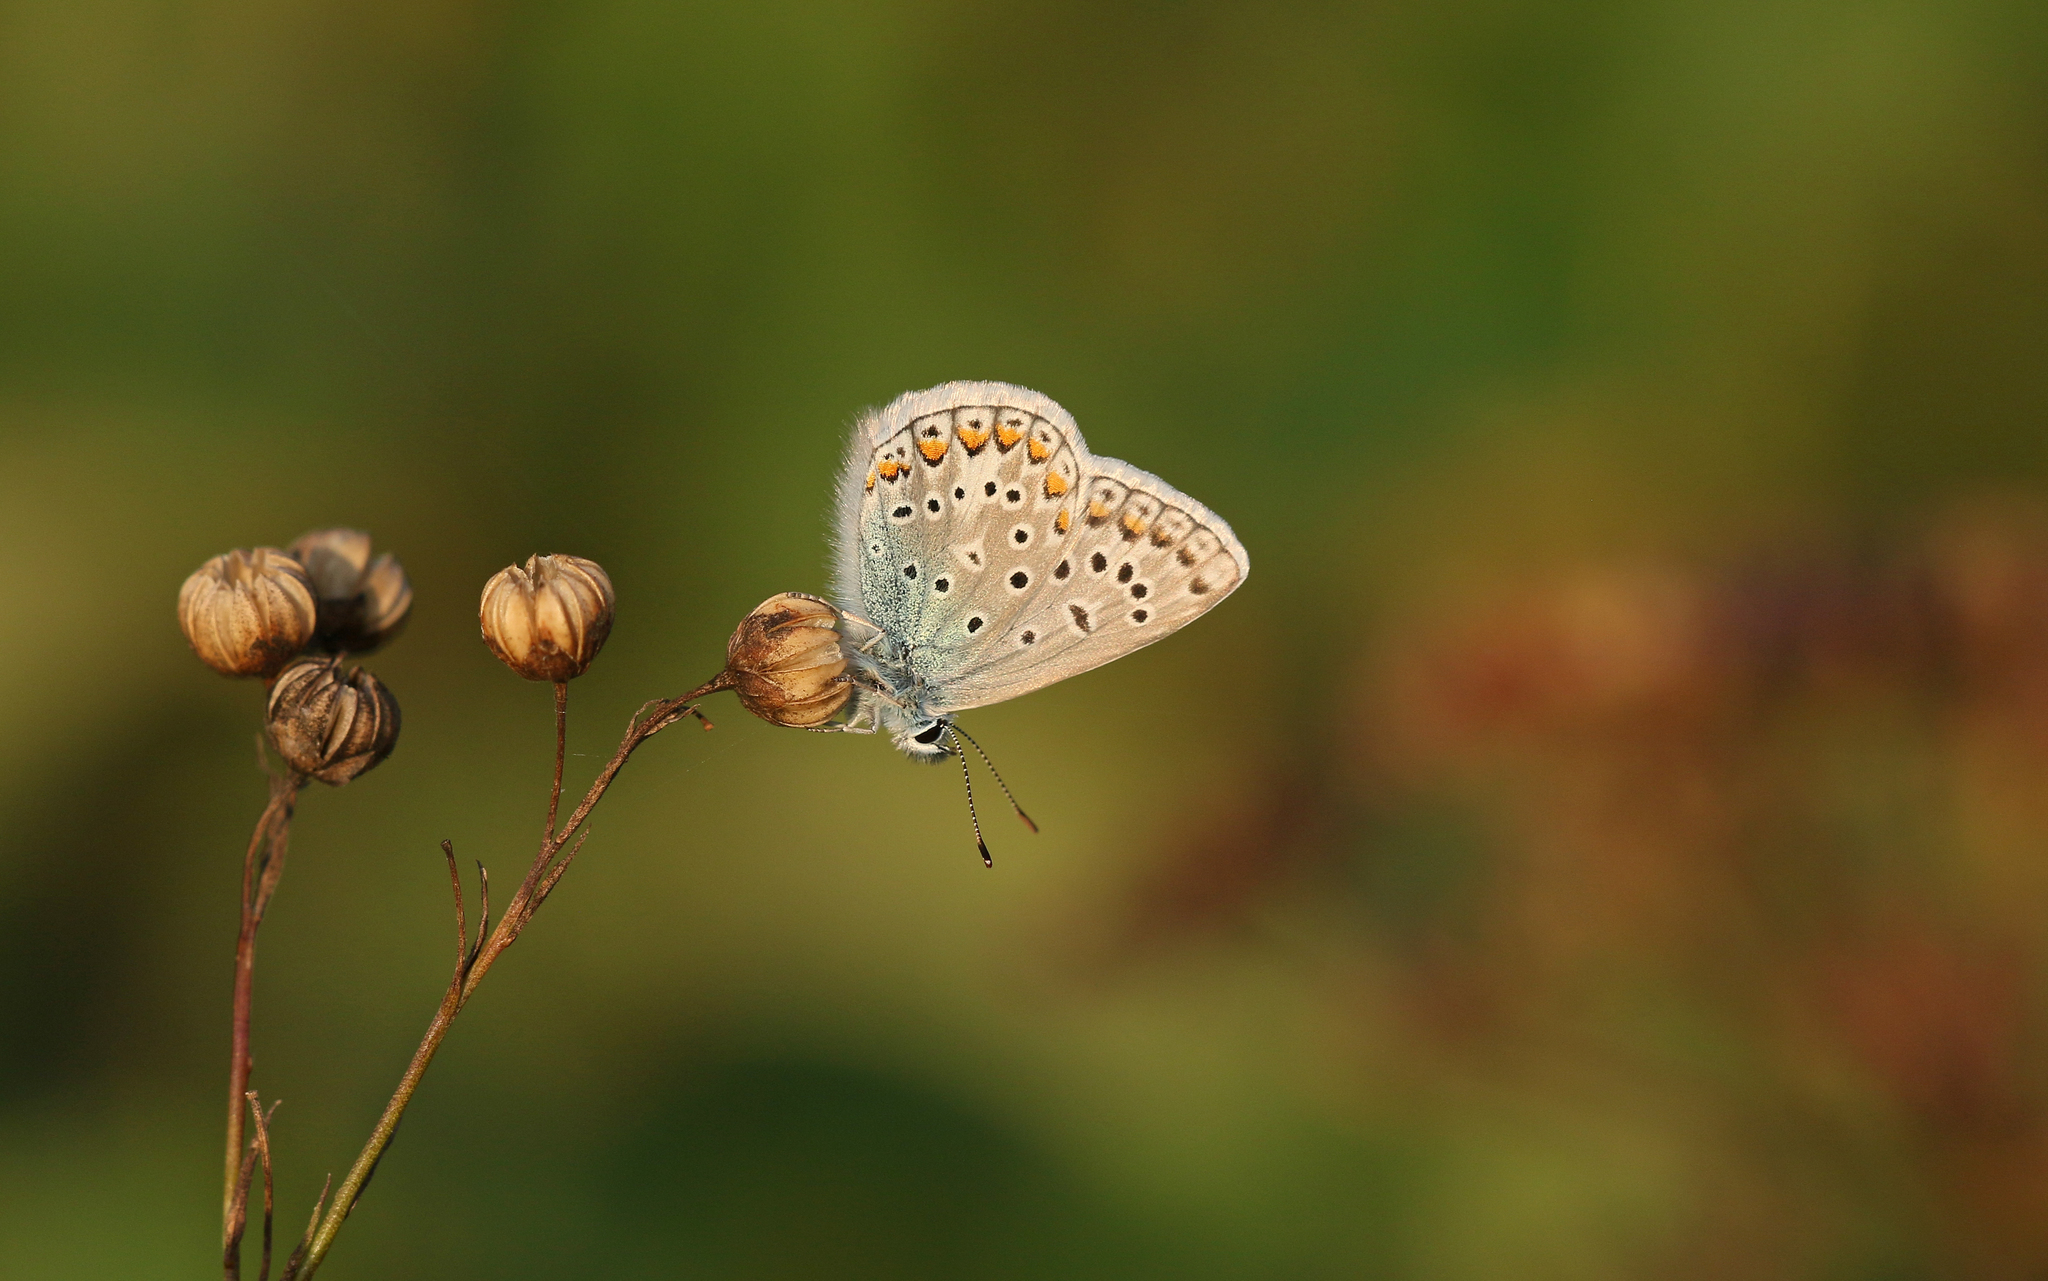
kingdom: Animalia
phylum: Arthropoda
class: Insecta
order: Lepidoptera
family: Lycaenidae
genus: Polyommatus
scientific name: Polyommatus icarus
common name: Common blue
